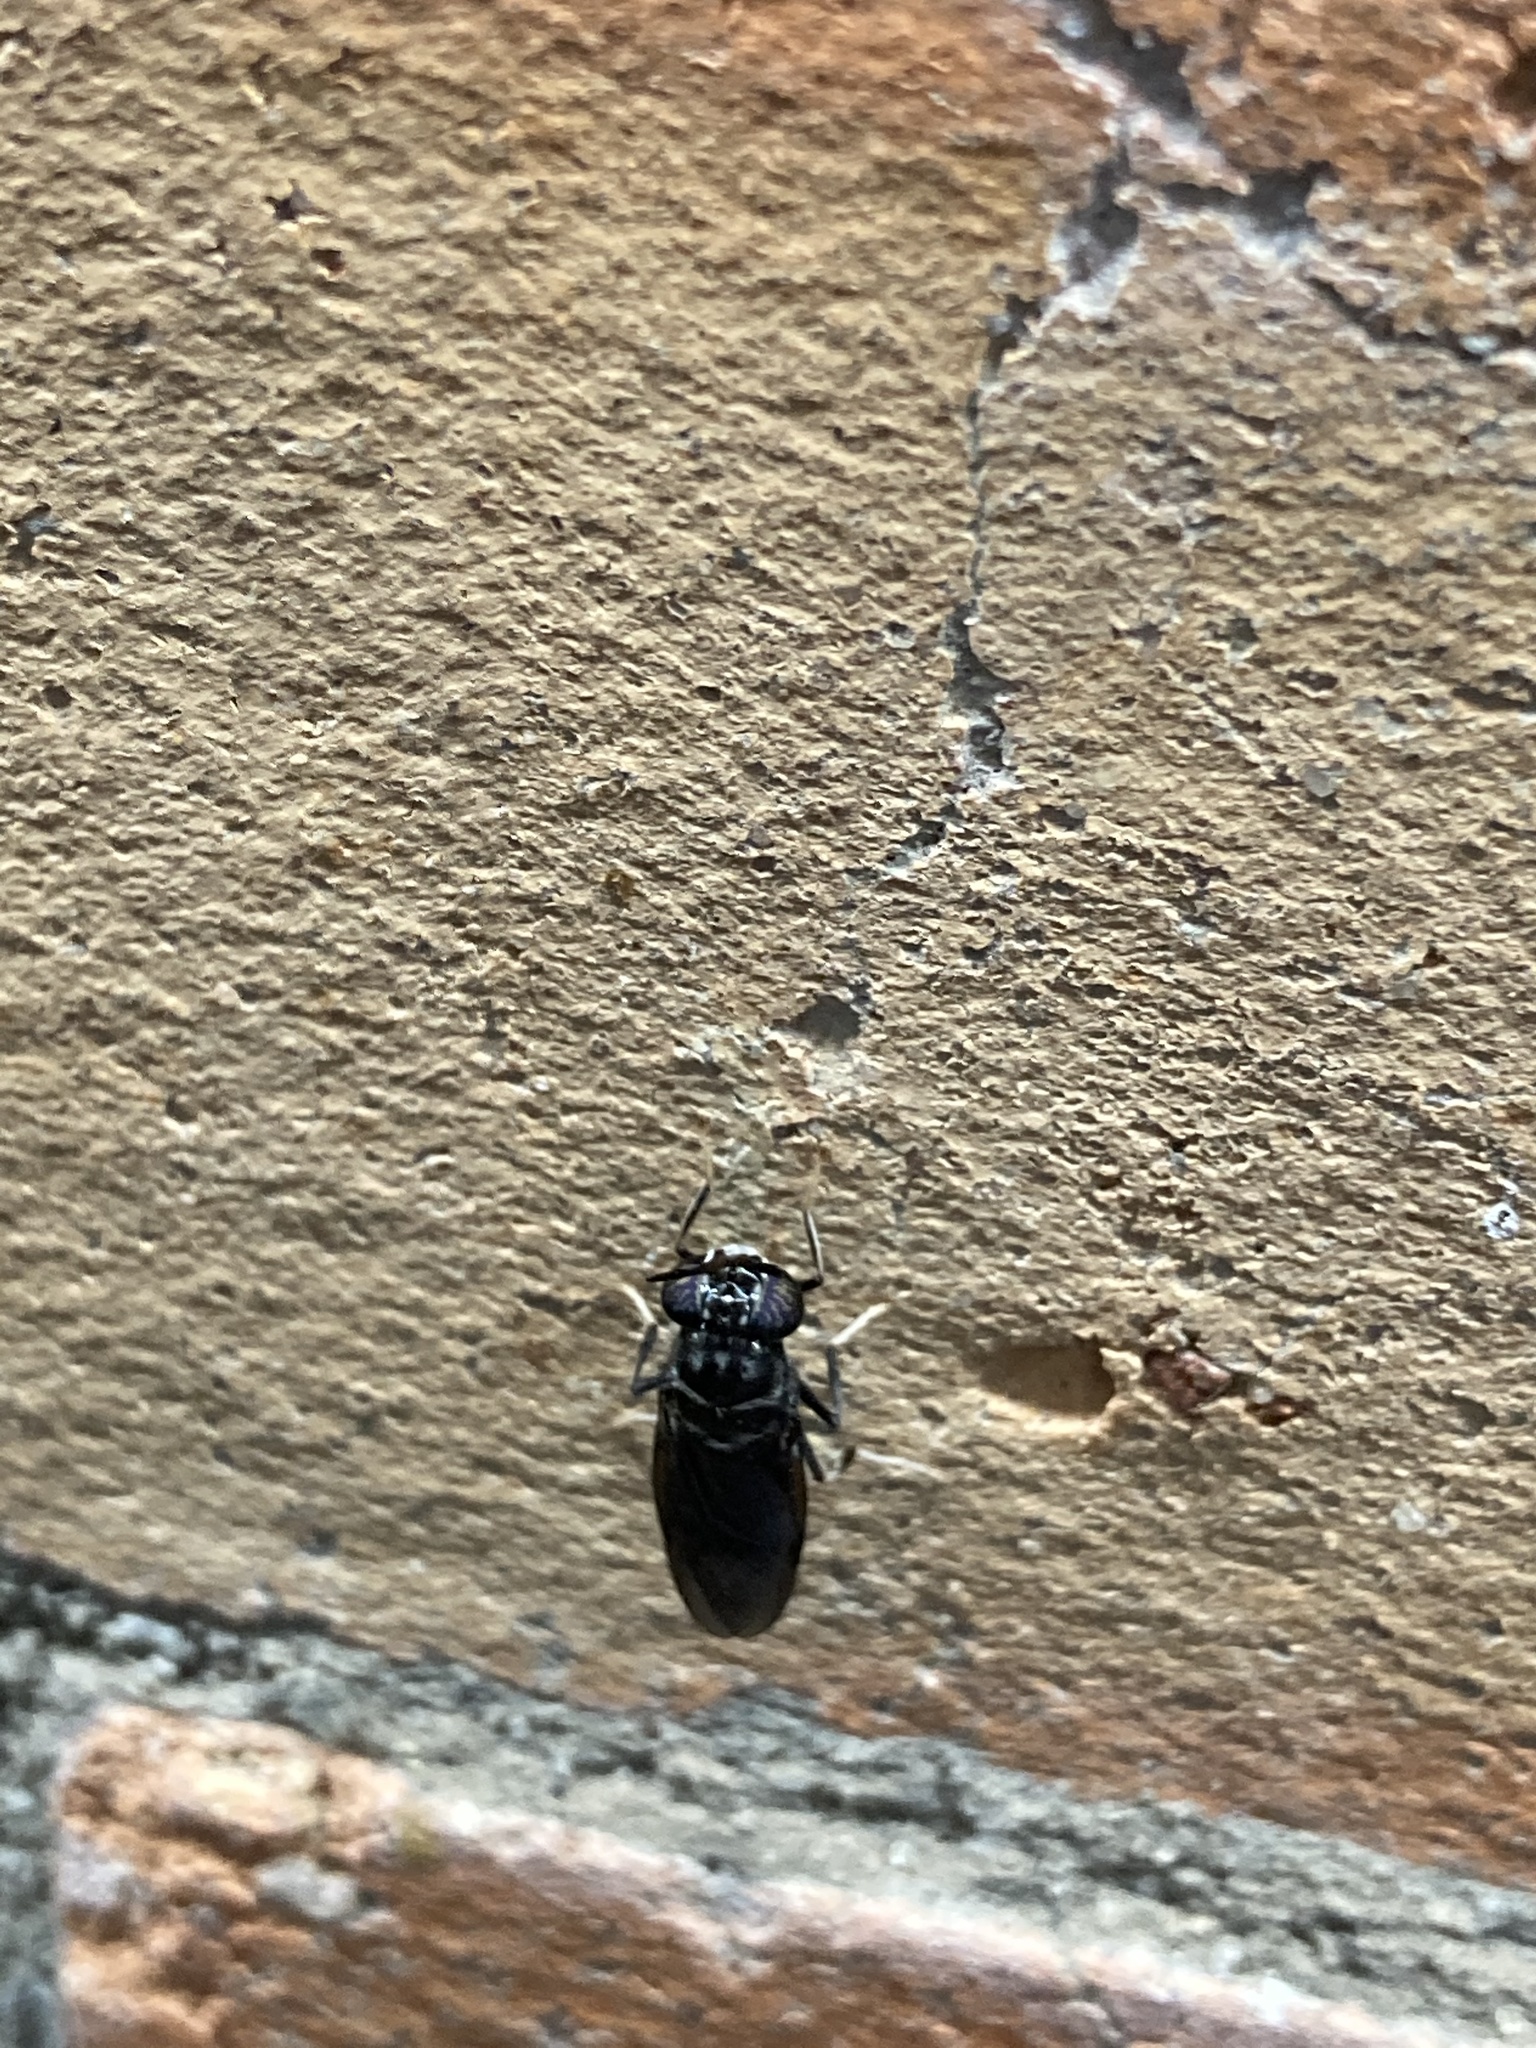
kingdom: Animalia
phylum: Arthropoda
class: Insecta
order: Diptera
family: Stratiomyidae
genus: Hermetia
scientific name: Hermetia illucens
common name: Black soldier fly
